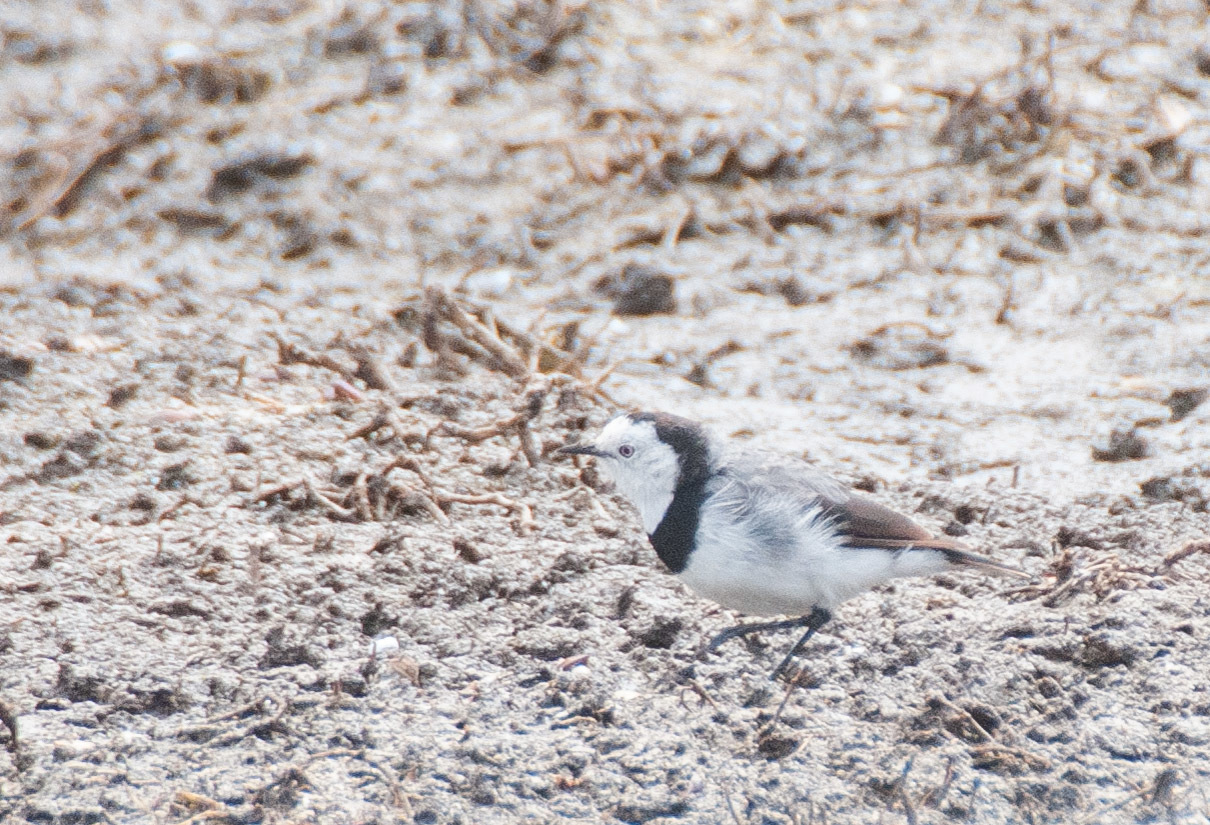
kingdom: Animalia
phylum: Chordata
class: Aves
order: Passeriformes
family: Meliphagidae
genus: Epthianura
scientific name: Epthianura albifrons
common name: White-fronted chat
